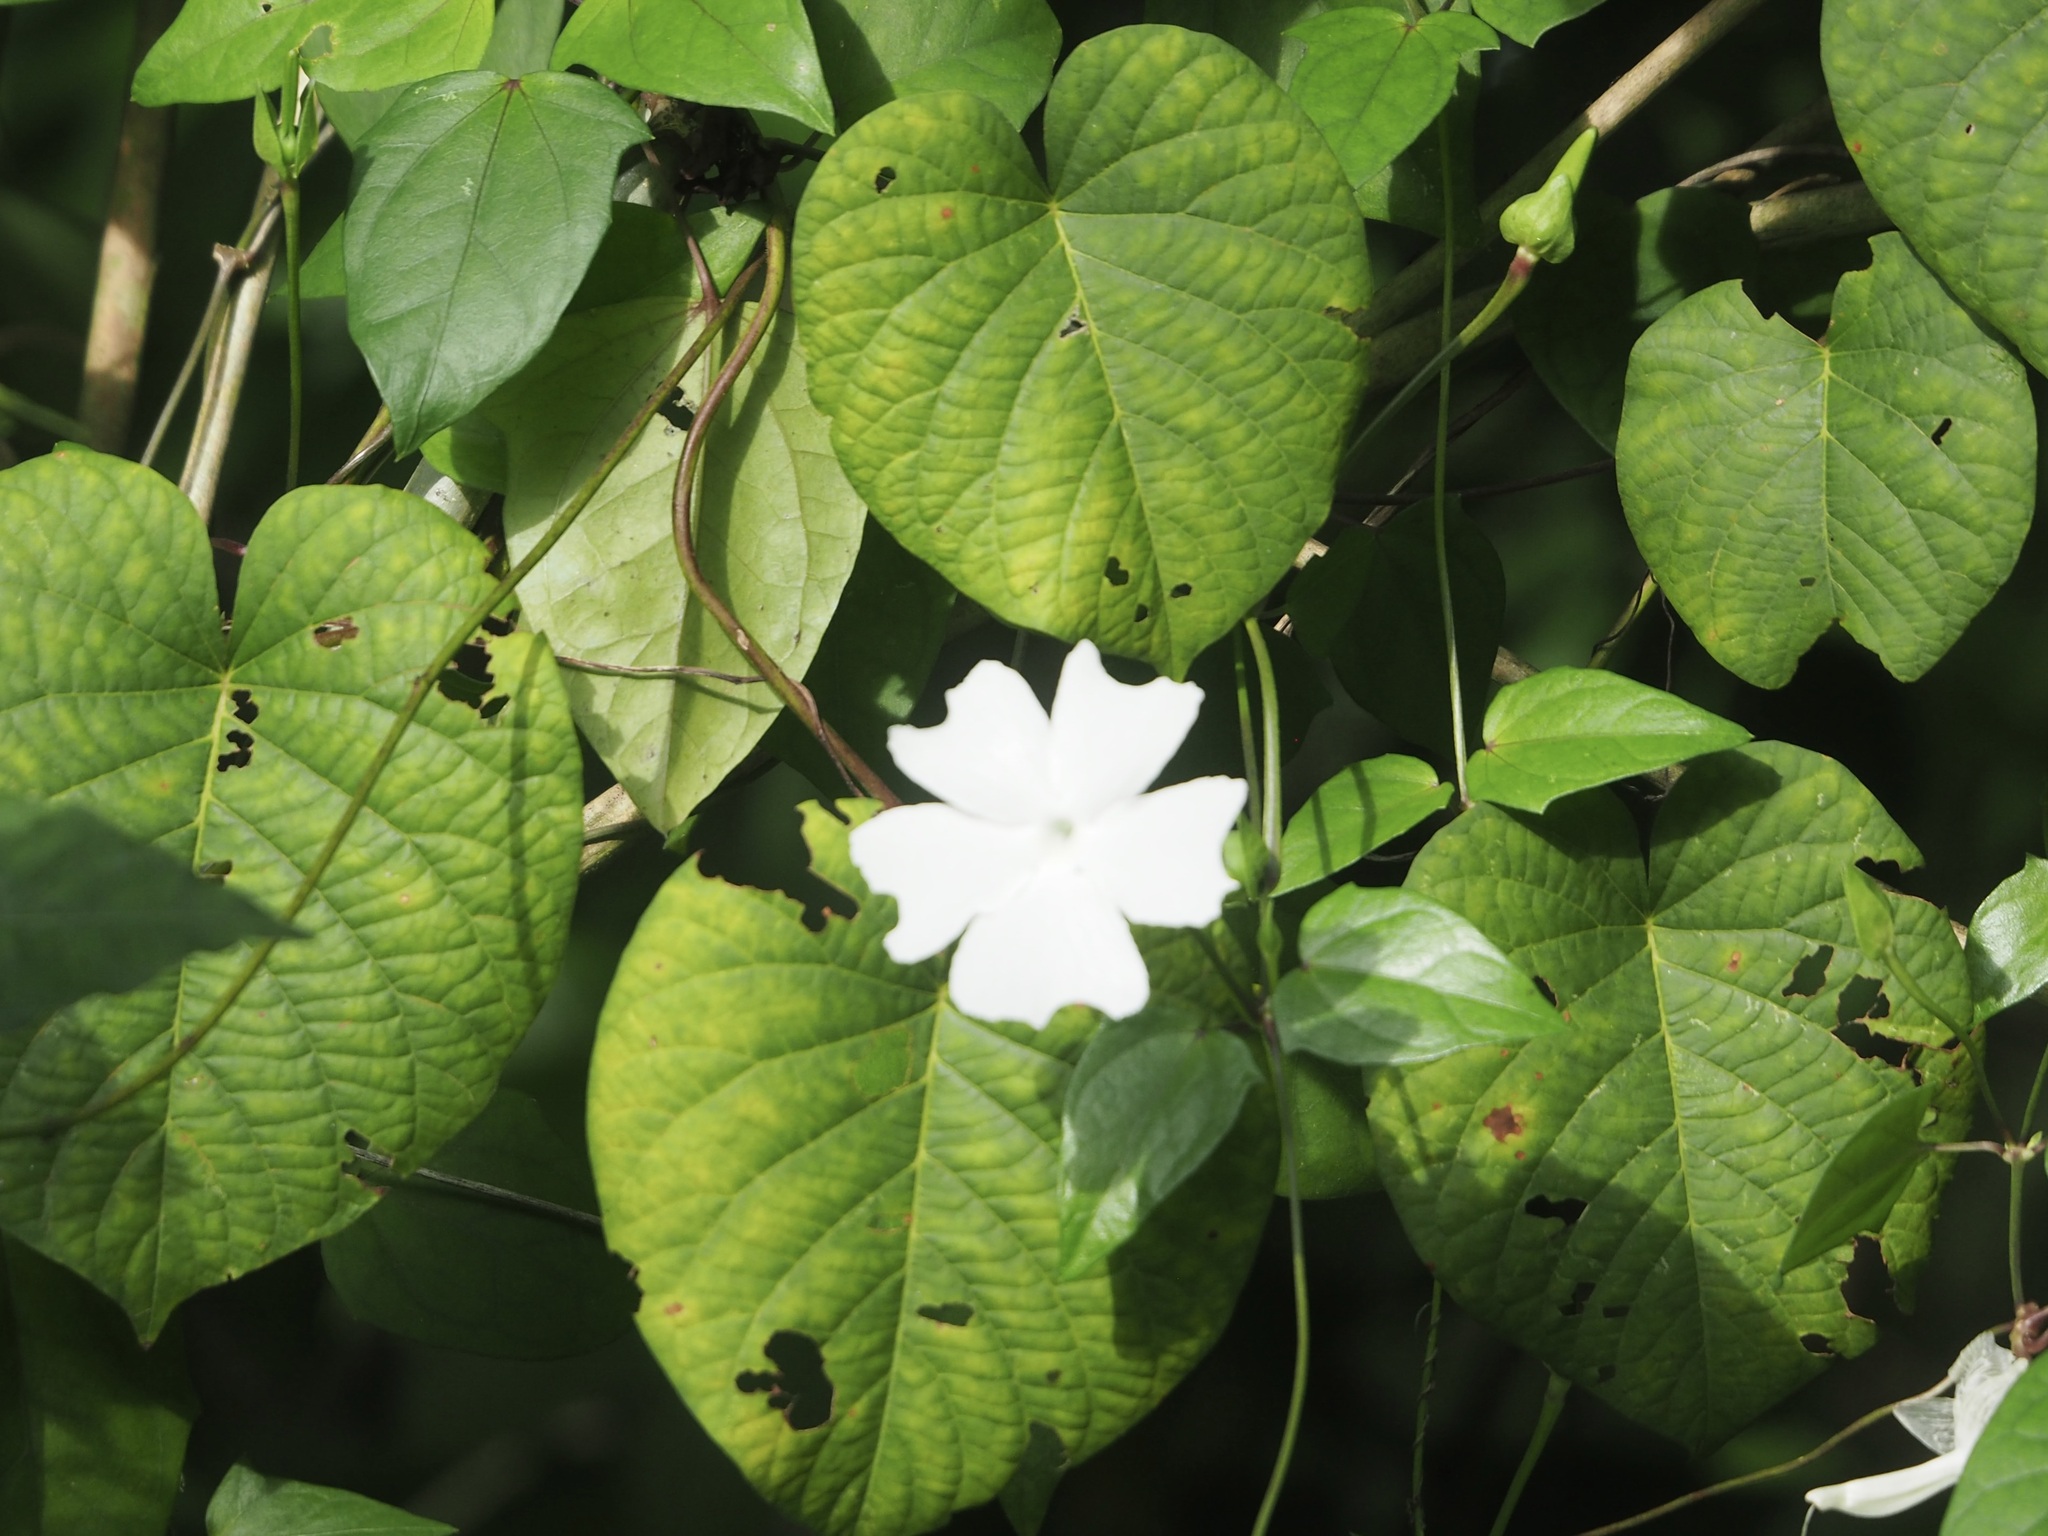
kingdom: Plantae
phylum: Tracheophyta
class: Magnoliopsida
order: Lamiales
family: Acanthaceae
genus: Thunbergia
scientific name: Thunbergia fragrans
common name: Whitelady
